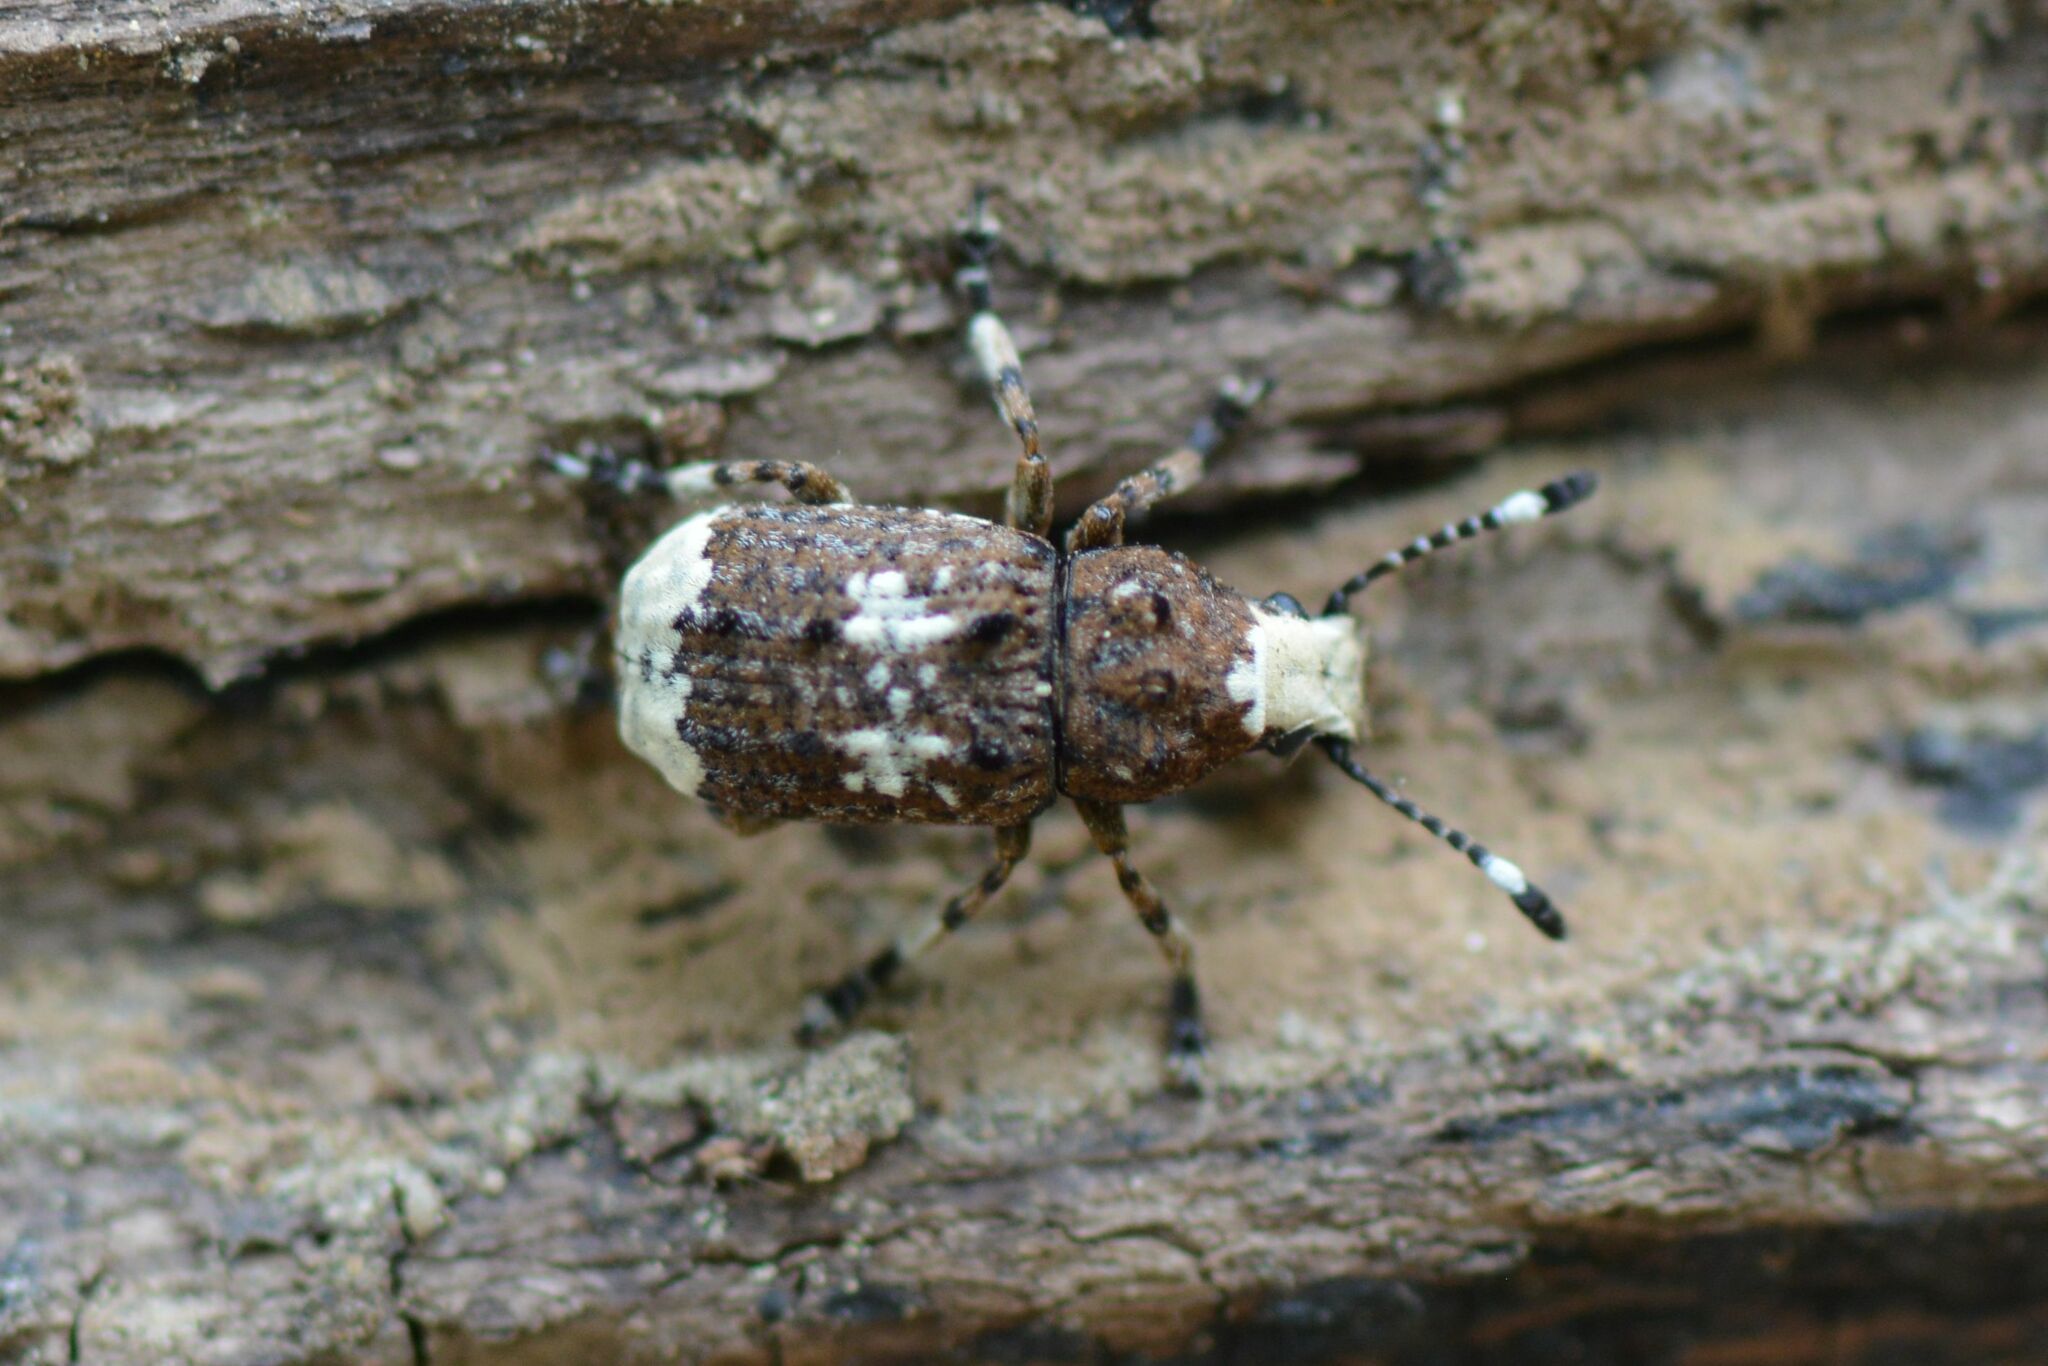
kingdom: Animalia
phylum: Arthropoda
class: Insecta
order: Coleoptera
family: Anthribidae
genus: Platystomos
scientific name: Platystomos albinus
